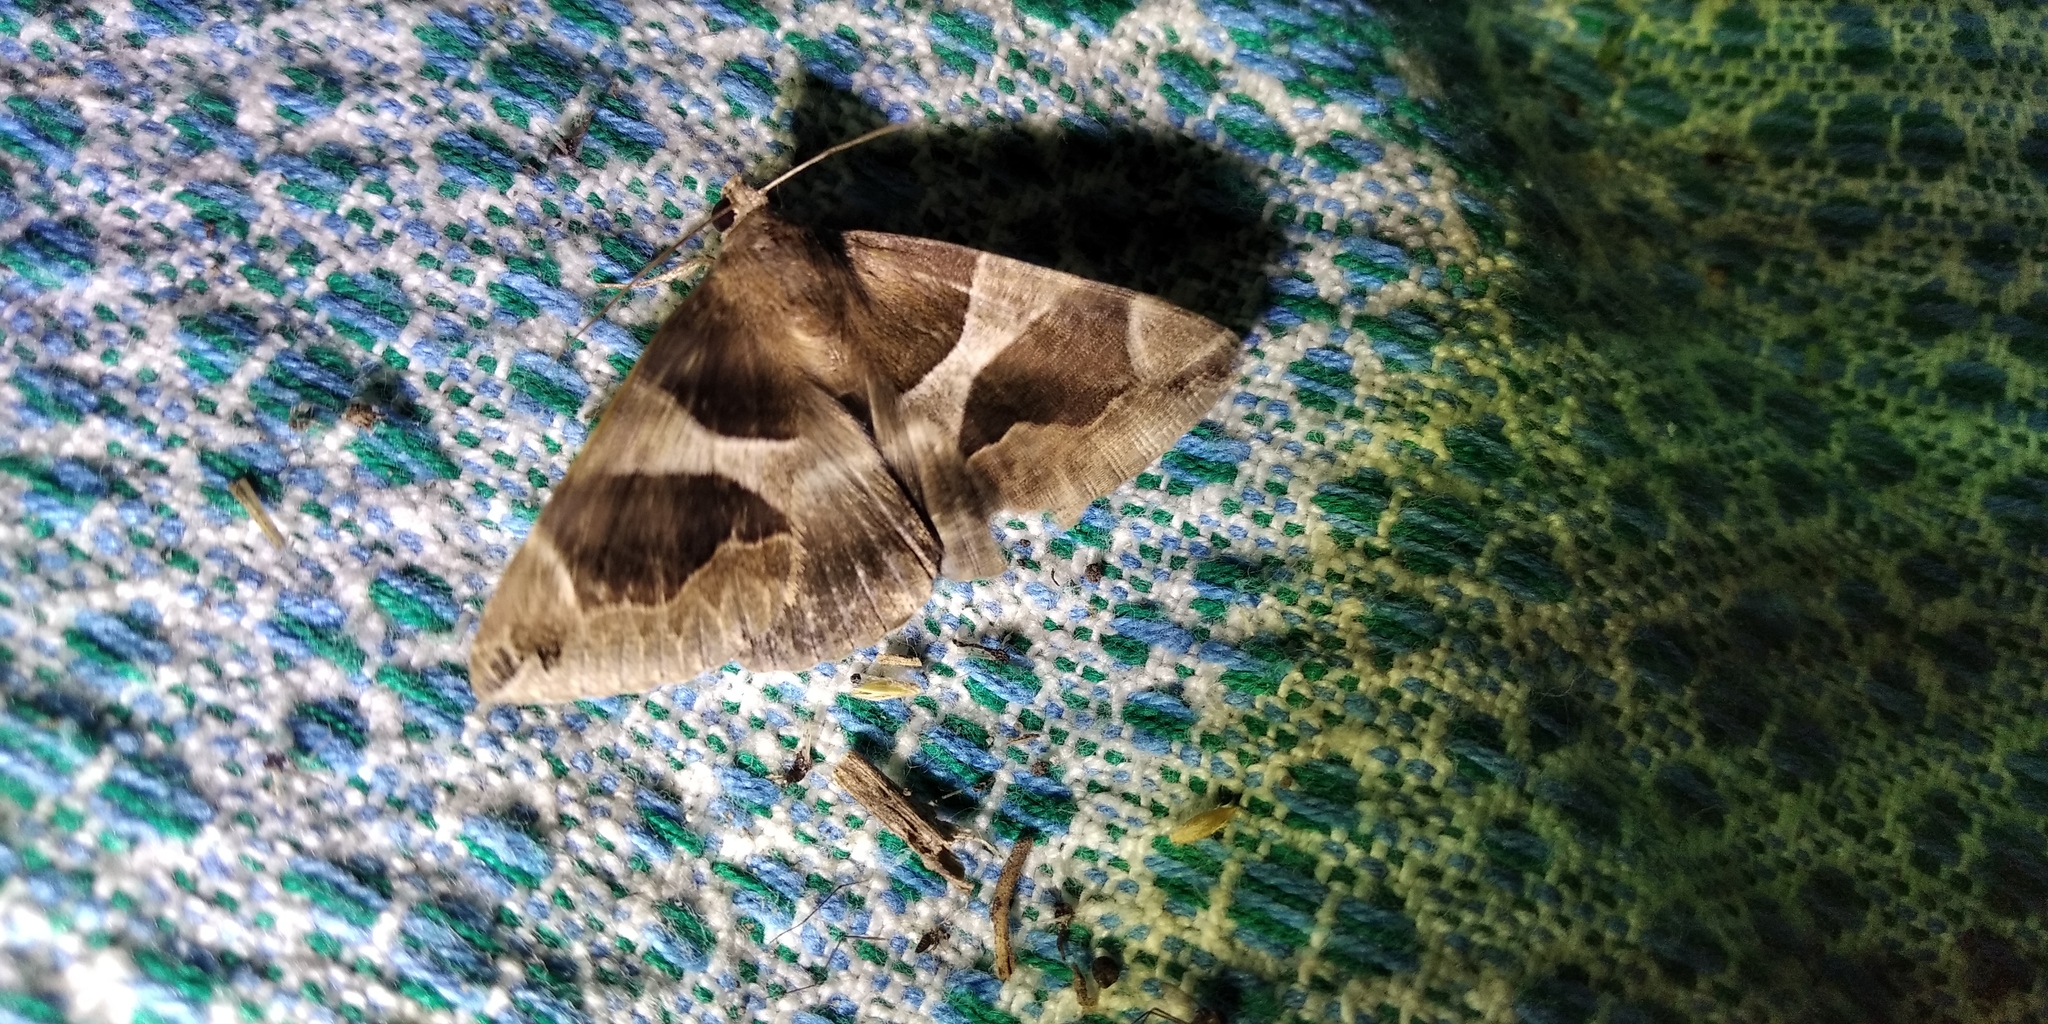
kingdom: Animalia
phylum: Arthropoda
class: Insecta
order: Lepidoptera
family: Erebidae
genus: Dysgonia
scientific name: Dysgonia algira
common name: Passenger
